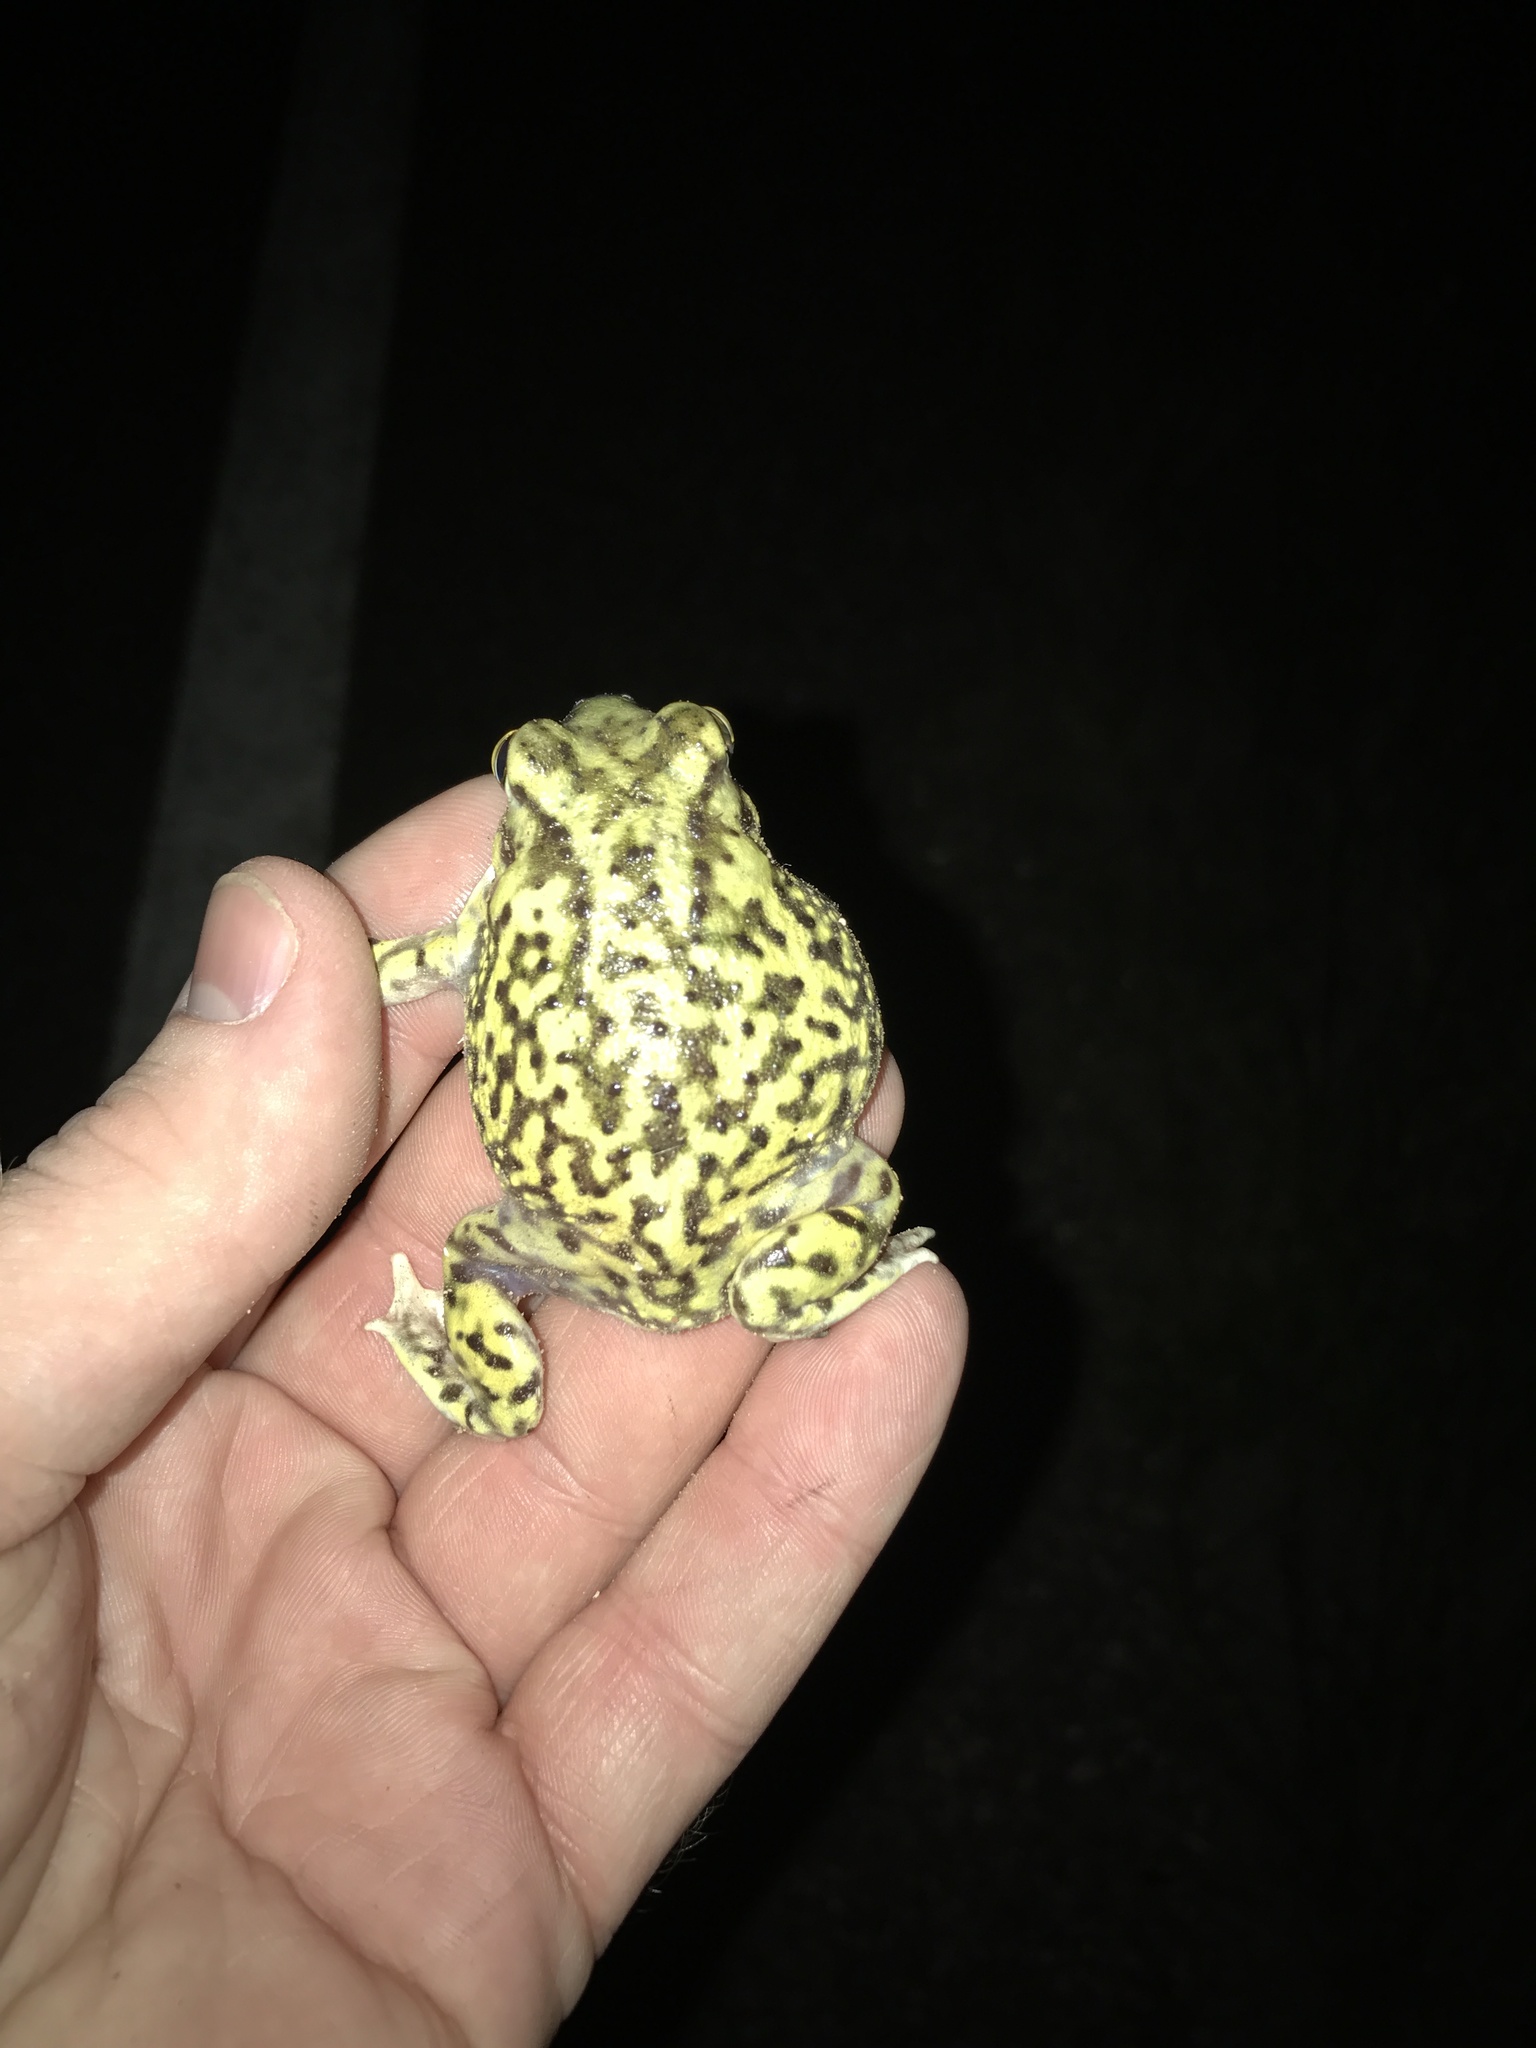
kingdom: Animalia
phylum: Chordata
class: Amphibia
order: Anura
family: Scaphiopodidae
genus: Scaphiopus
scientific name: Scaphiopus couchii
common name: Couch's spadefoot toad
